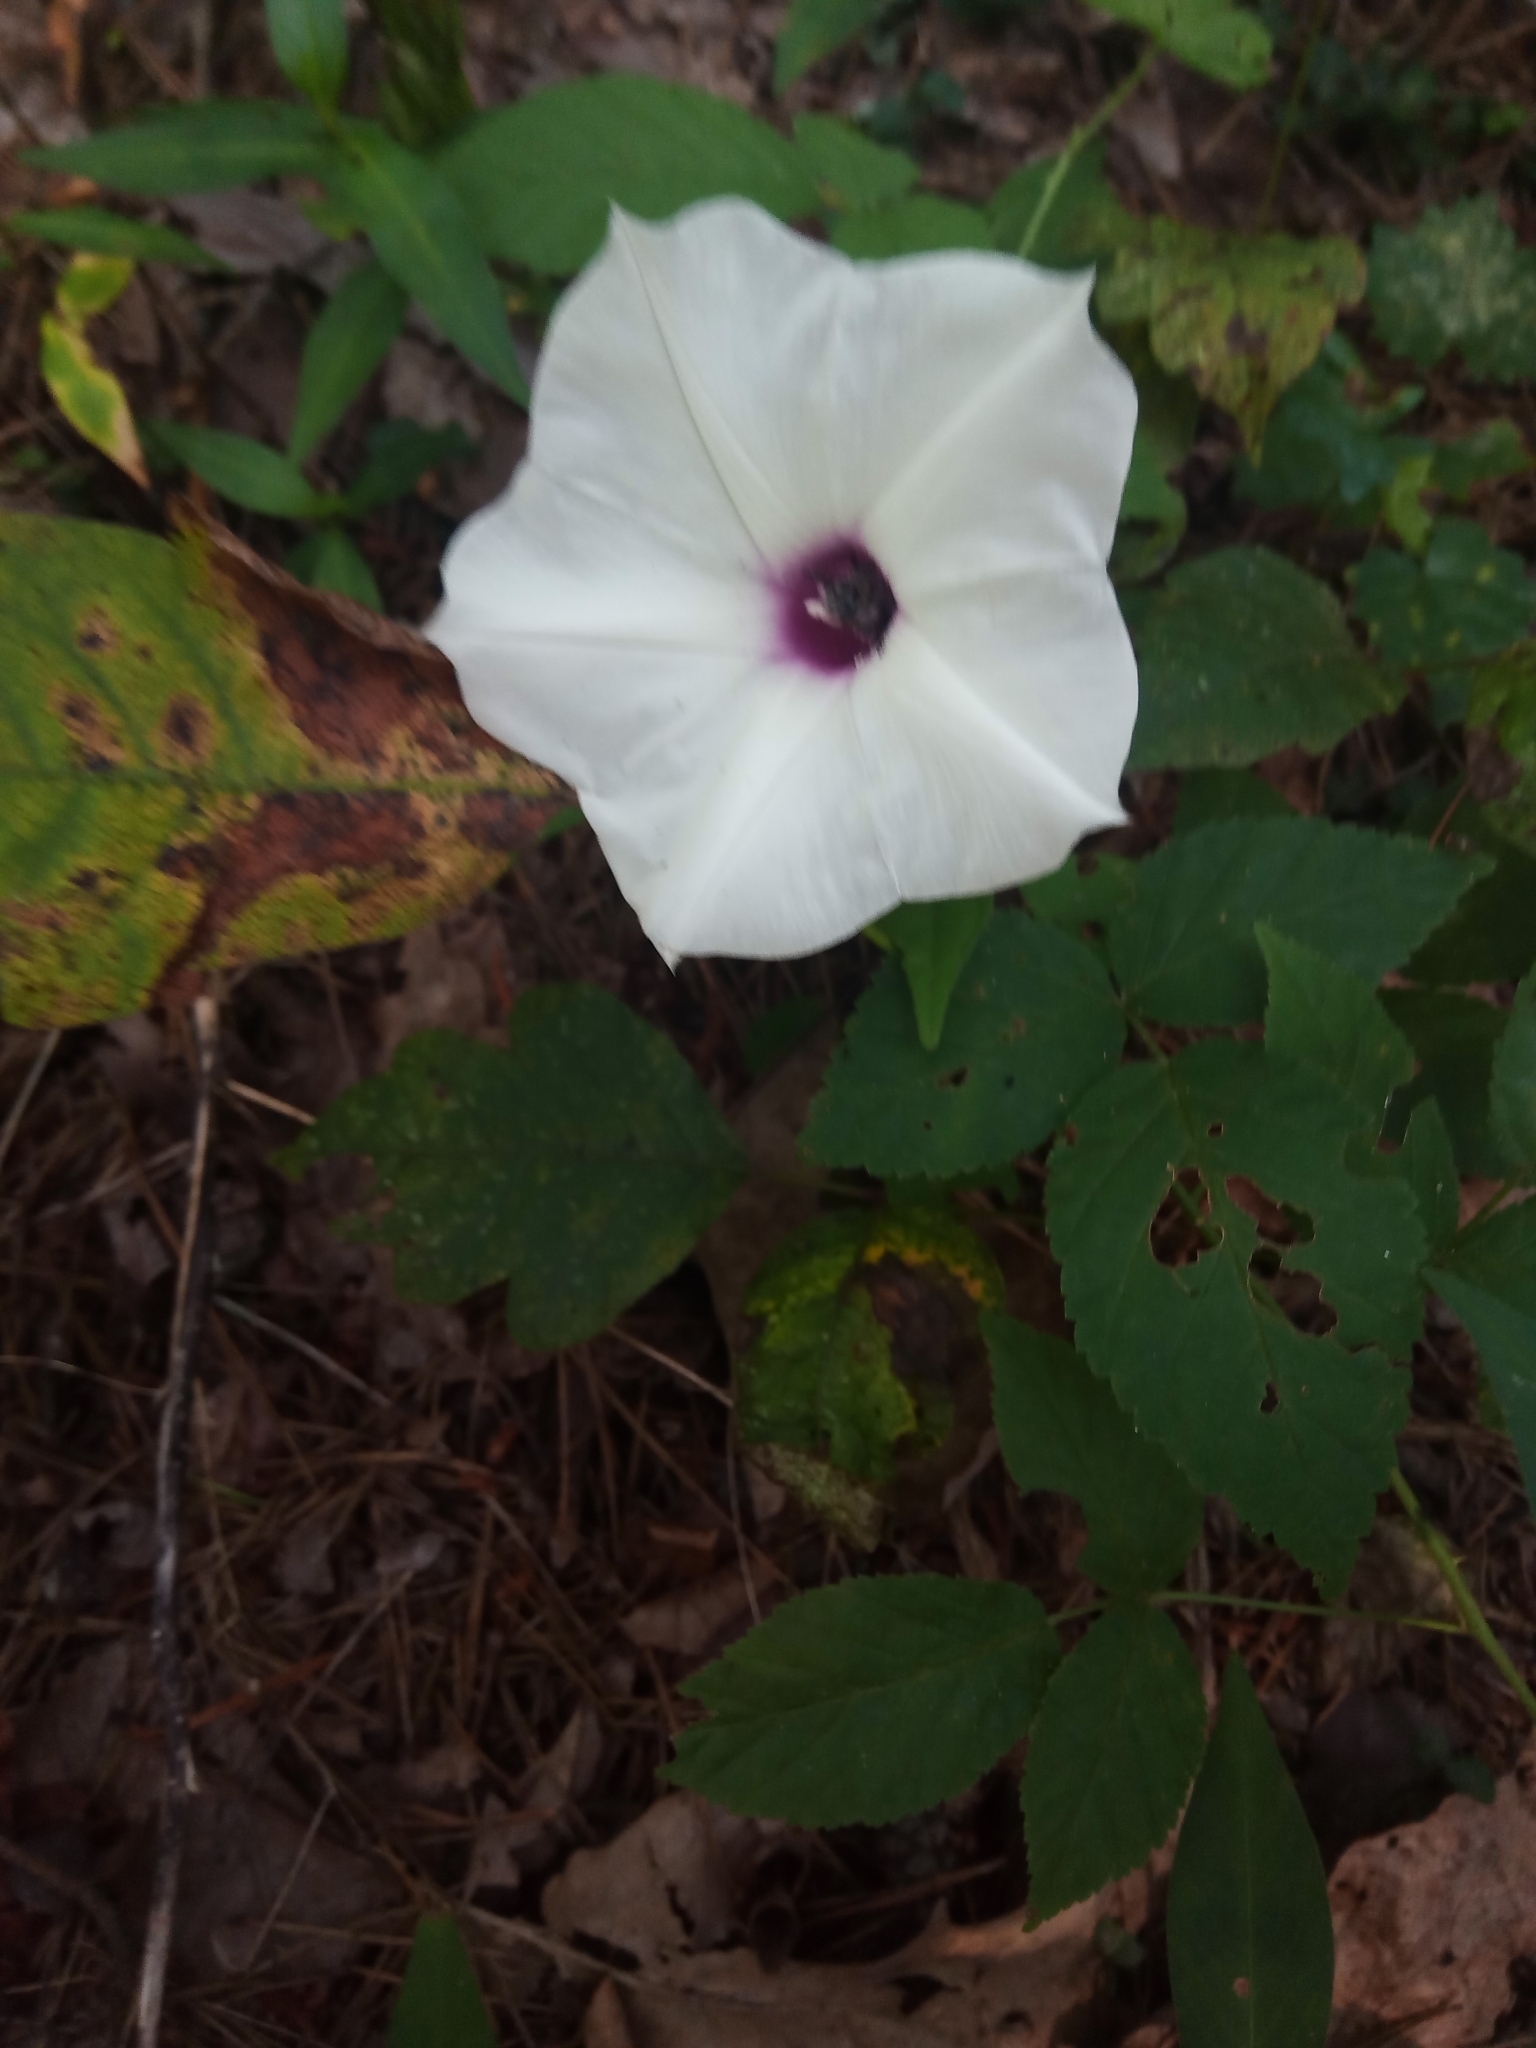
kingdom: Plantae
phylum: Tracheophyta
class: Magnoliopsida
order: Solanales
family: Convolvulaceae
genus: Ipomoea
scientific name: Ipomoea pandurata
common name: Man-of-the-earth
